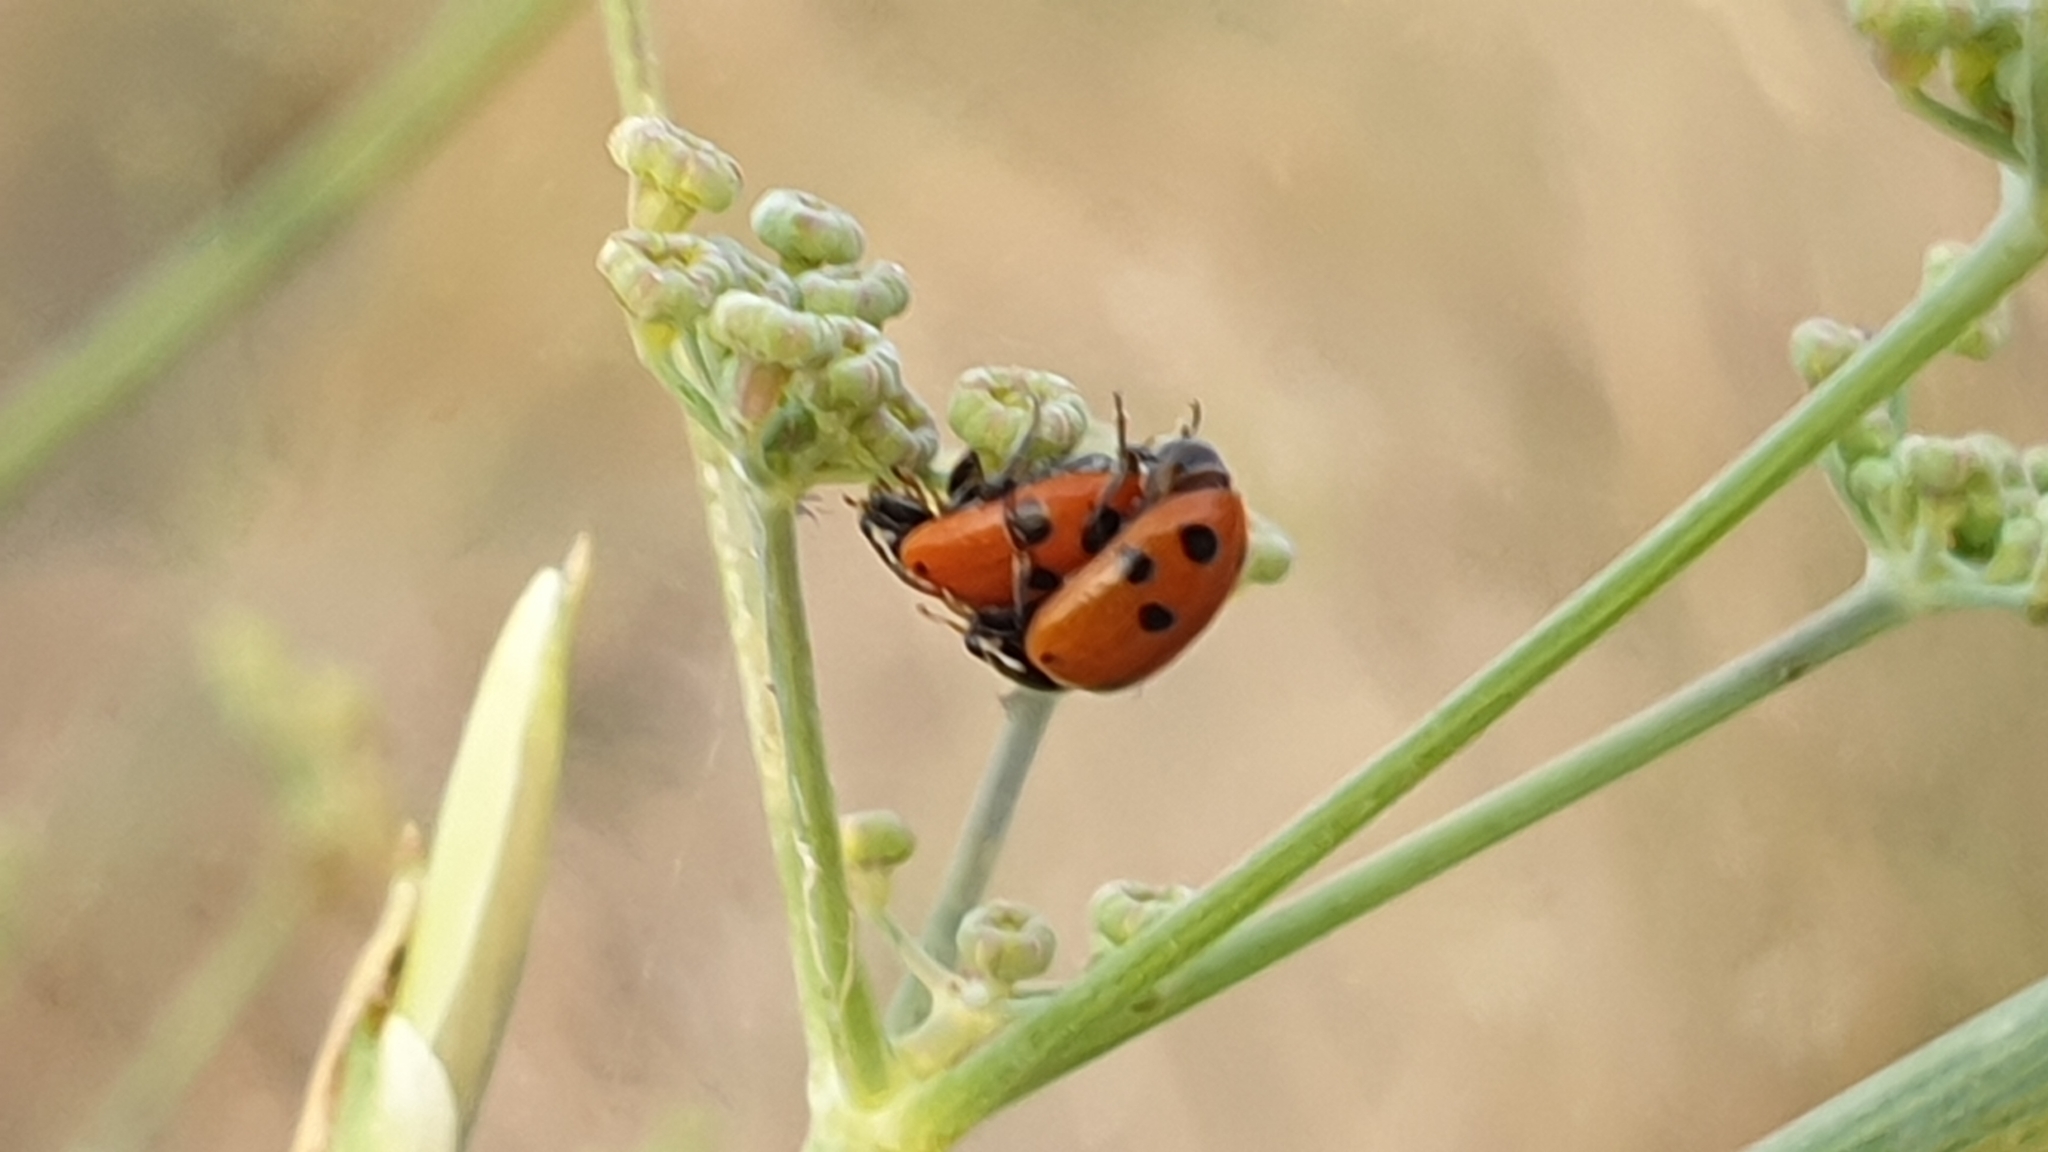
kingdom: Animalia
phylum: Arthropoda
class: Insecta
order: Coleoptera
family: Coccinellidae
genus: Hippodamia
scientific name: Hippodamia variegata
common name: Ladybird beetle
